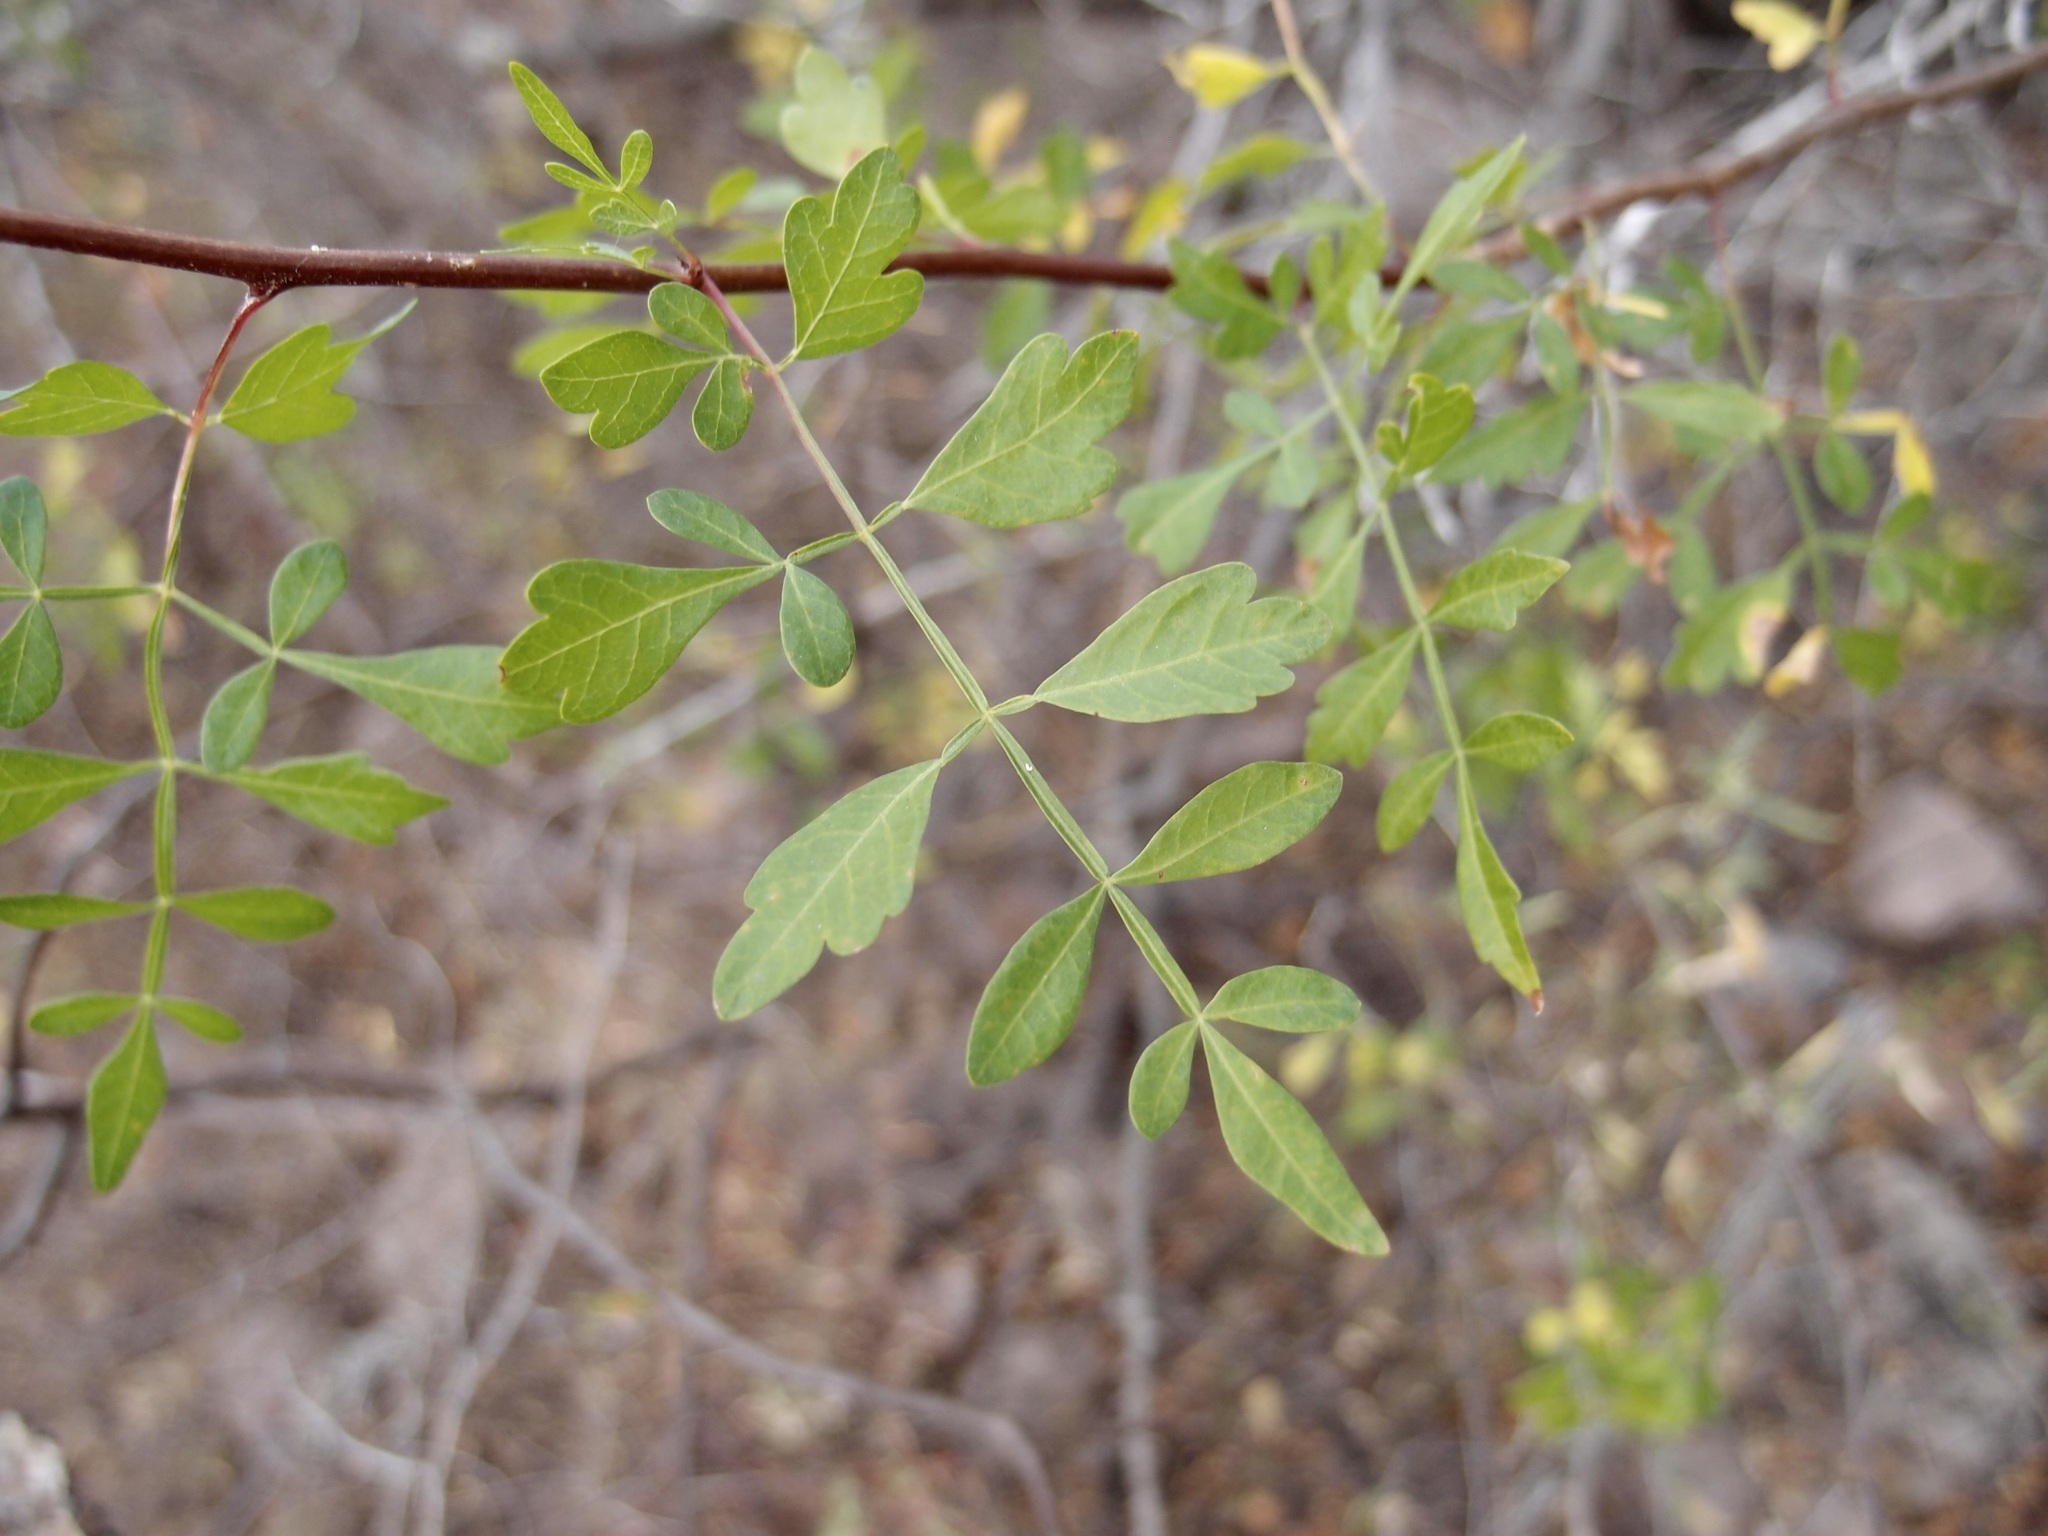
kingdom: Plantae
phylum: Tracheophyta
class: Magnoliopsida
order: Sapindales
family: Burseraceae
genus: Bursera
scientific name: Bursera laxiflora
